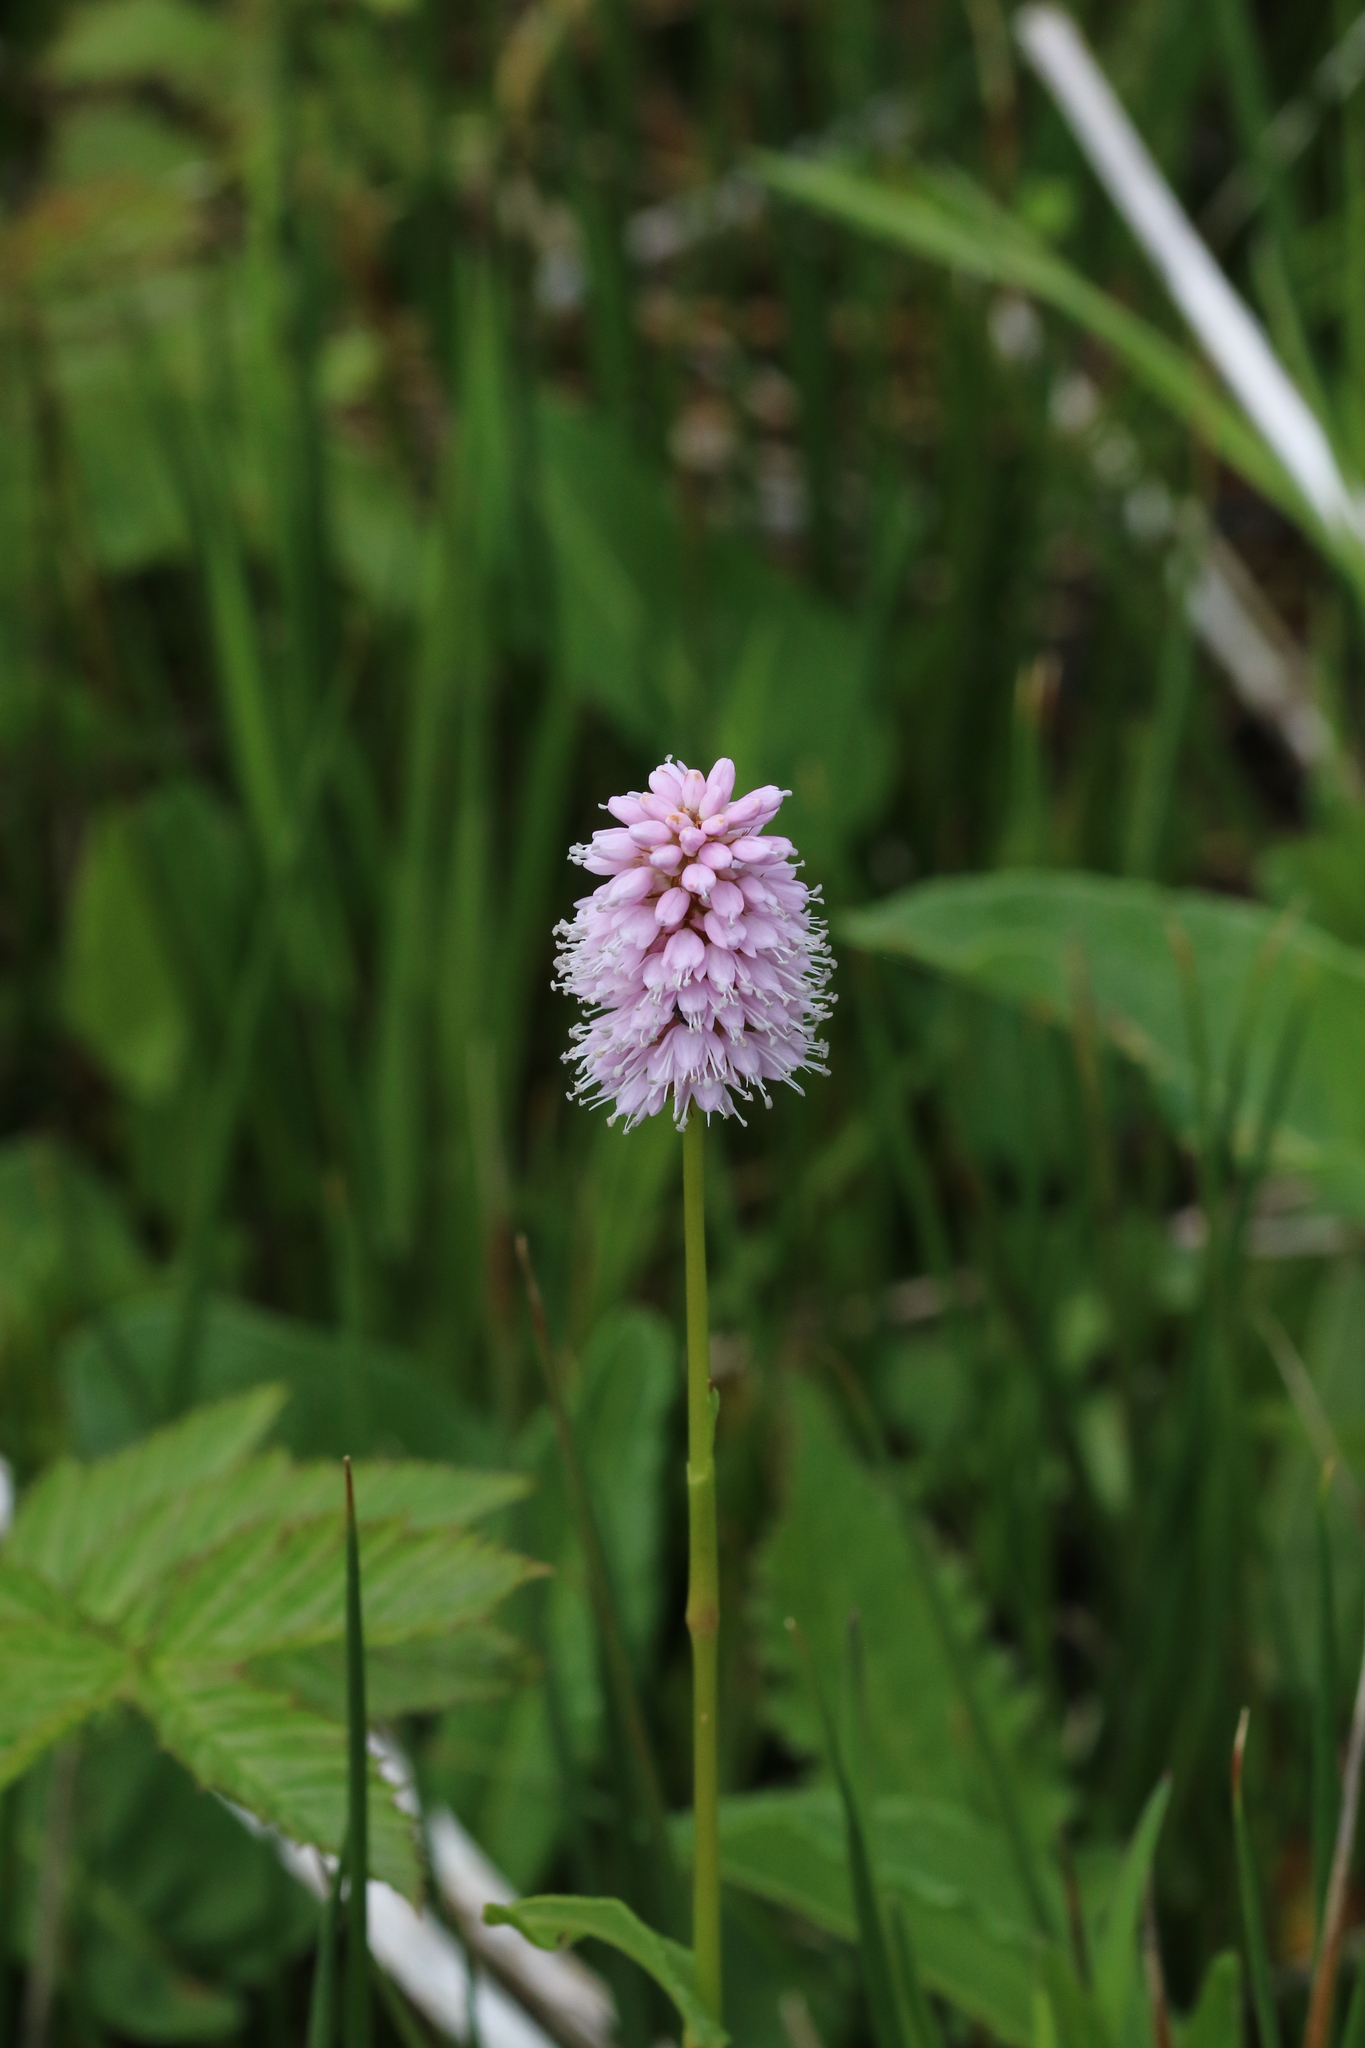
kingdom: Plantae
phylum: Tracheophyta
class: Magnoliopsida
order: Caryophyllales
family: Polygonaceae
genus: Bistorta
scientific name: Bistorta officinalis
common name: Common bistort
